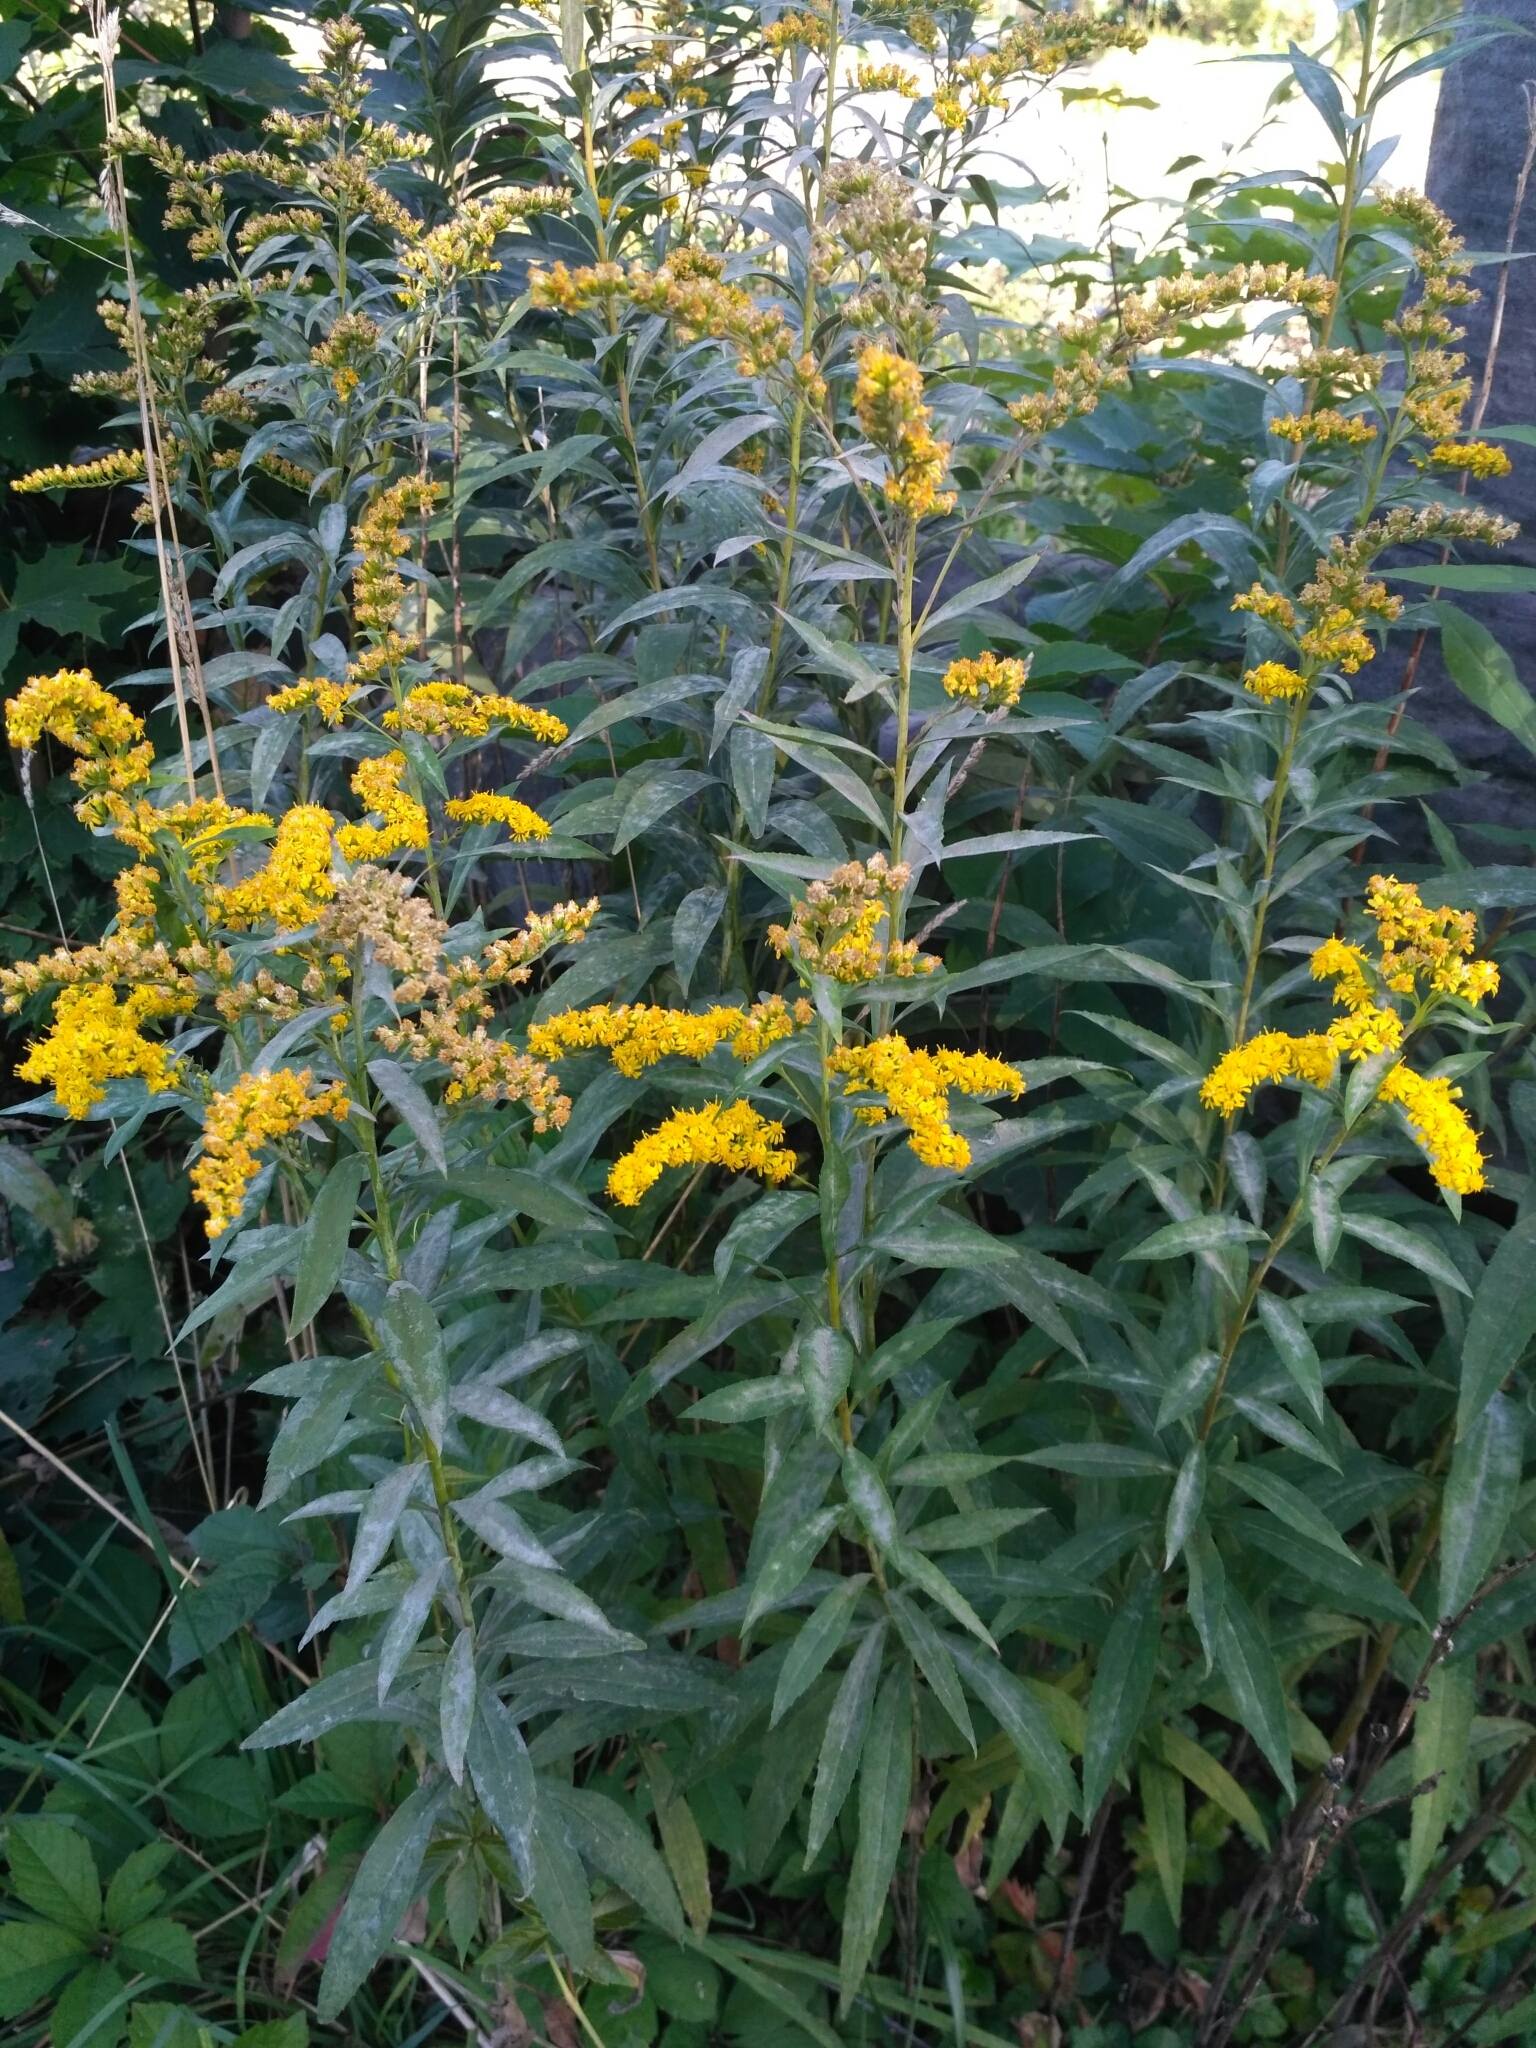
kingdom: Plantae
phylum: Tracheophyta
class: Magnoliopsida
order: Asterales
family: Asteraceae
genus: Solidago
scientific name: Solidago gigantea
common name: Giant goldenrod
